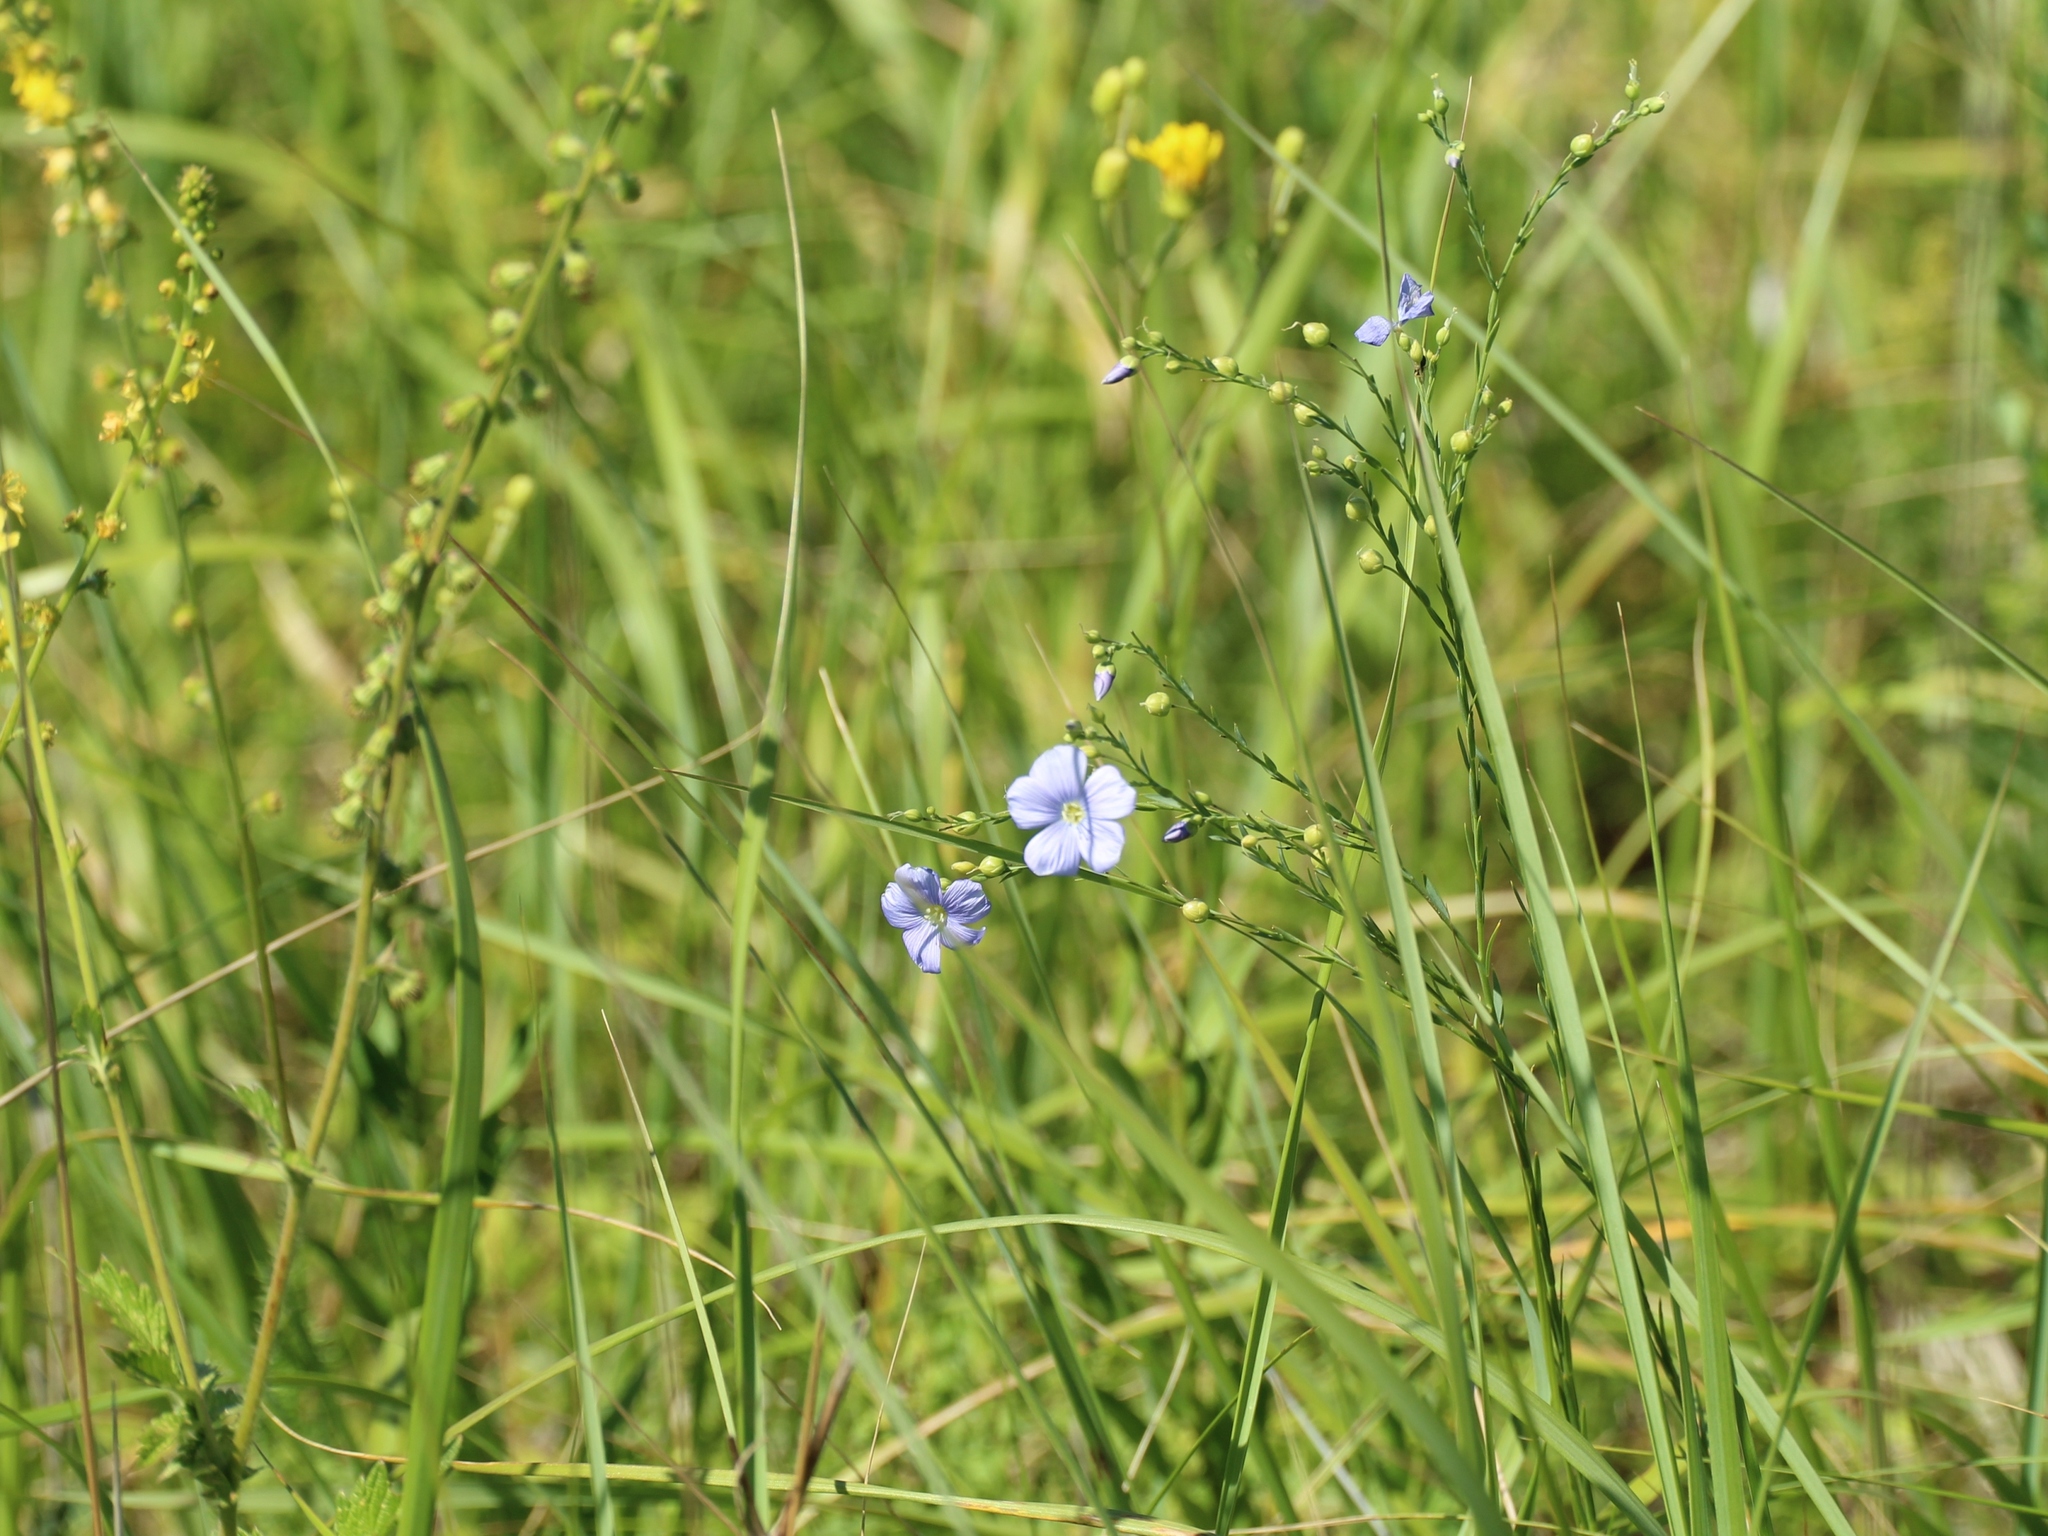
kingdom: Plantae
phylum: Tracheophyta
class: Magnoliopsida
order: Malpighiales
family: Linaceae
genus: Linum
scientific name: Linum perenne
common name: Blue flax
